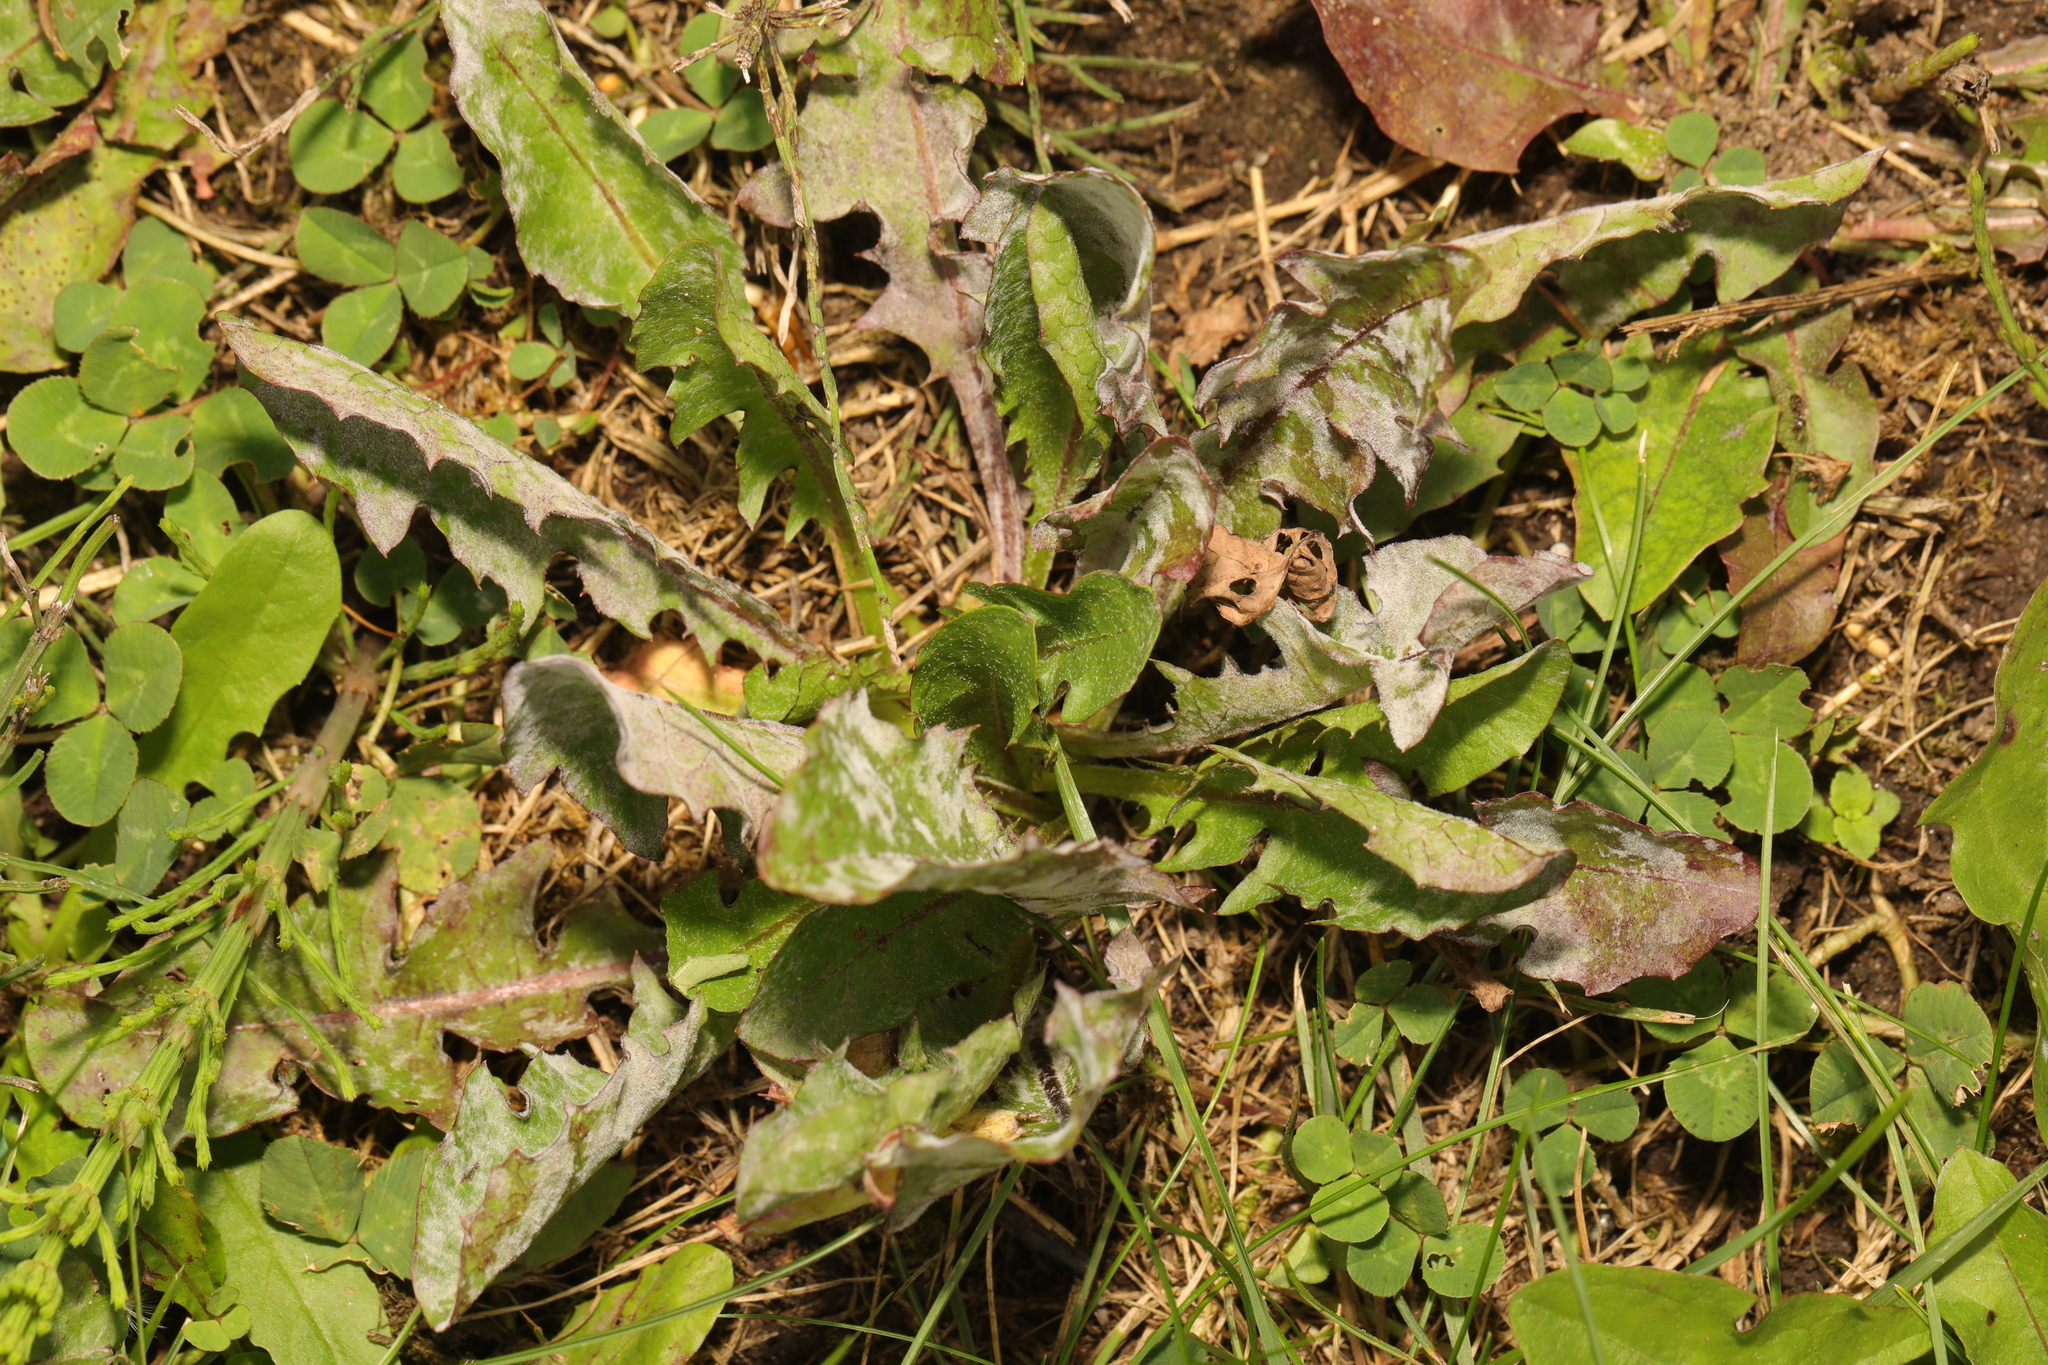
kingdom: Plantae
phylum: Tracheophyta
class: Magnoliopsida
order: Asterales
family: Asteraceae
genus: Taraxacum
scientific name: Taraxacum officinale
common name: Common dandelion
